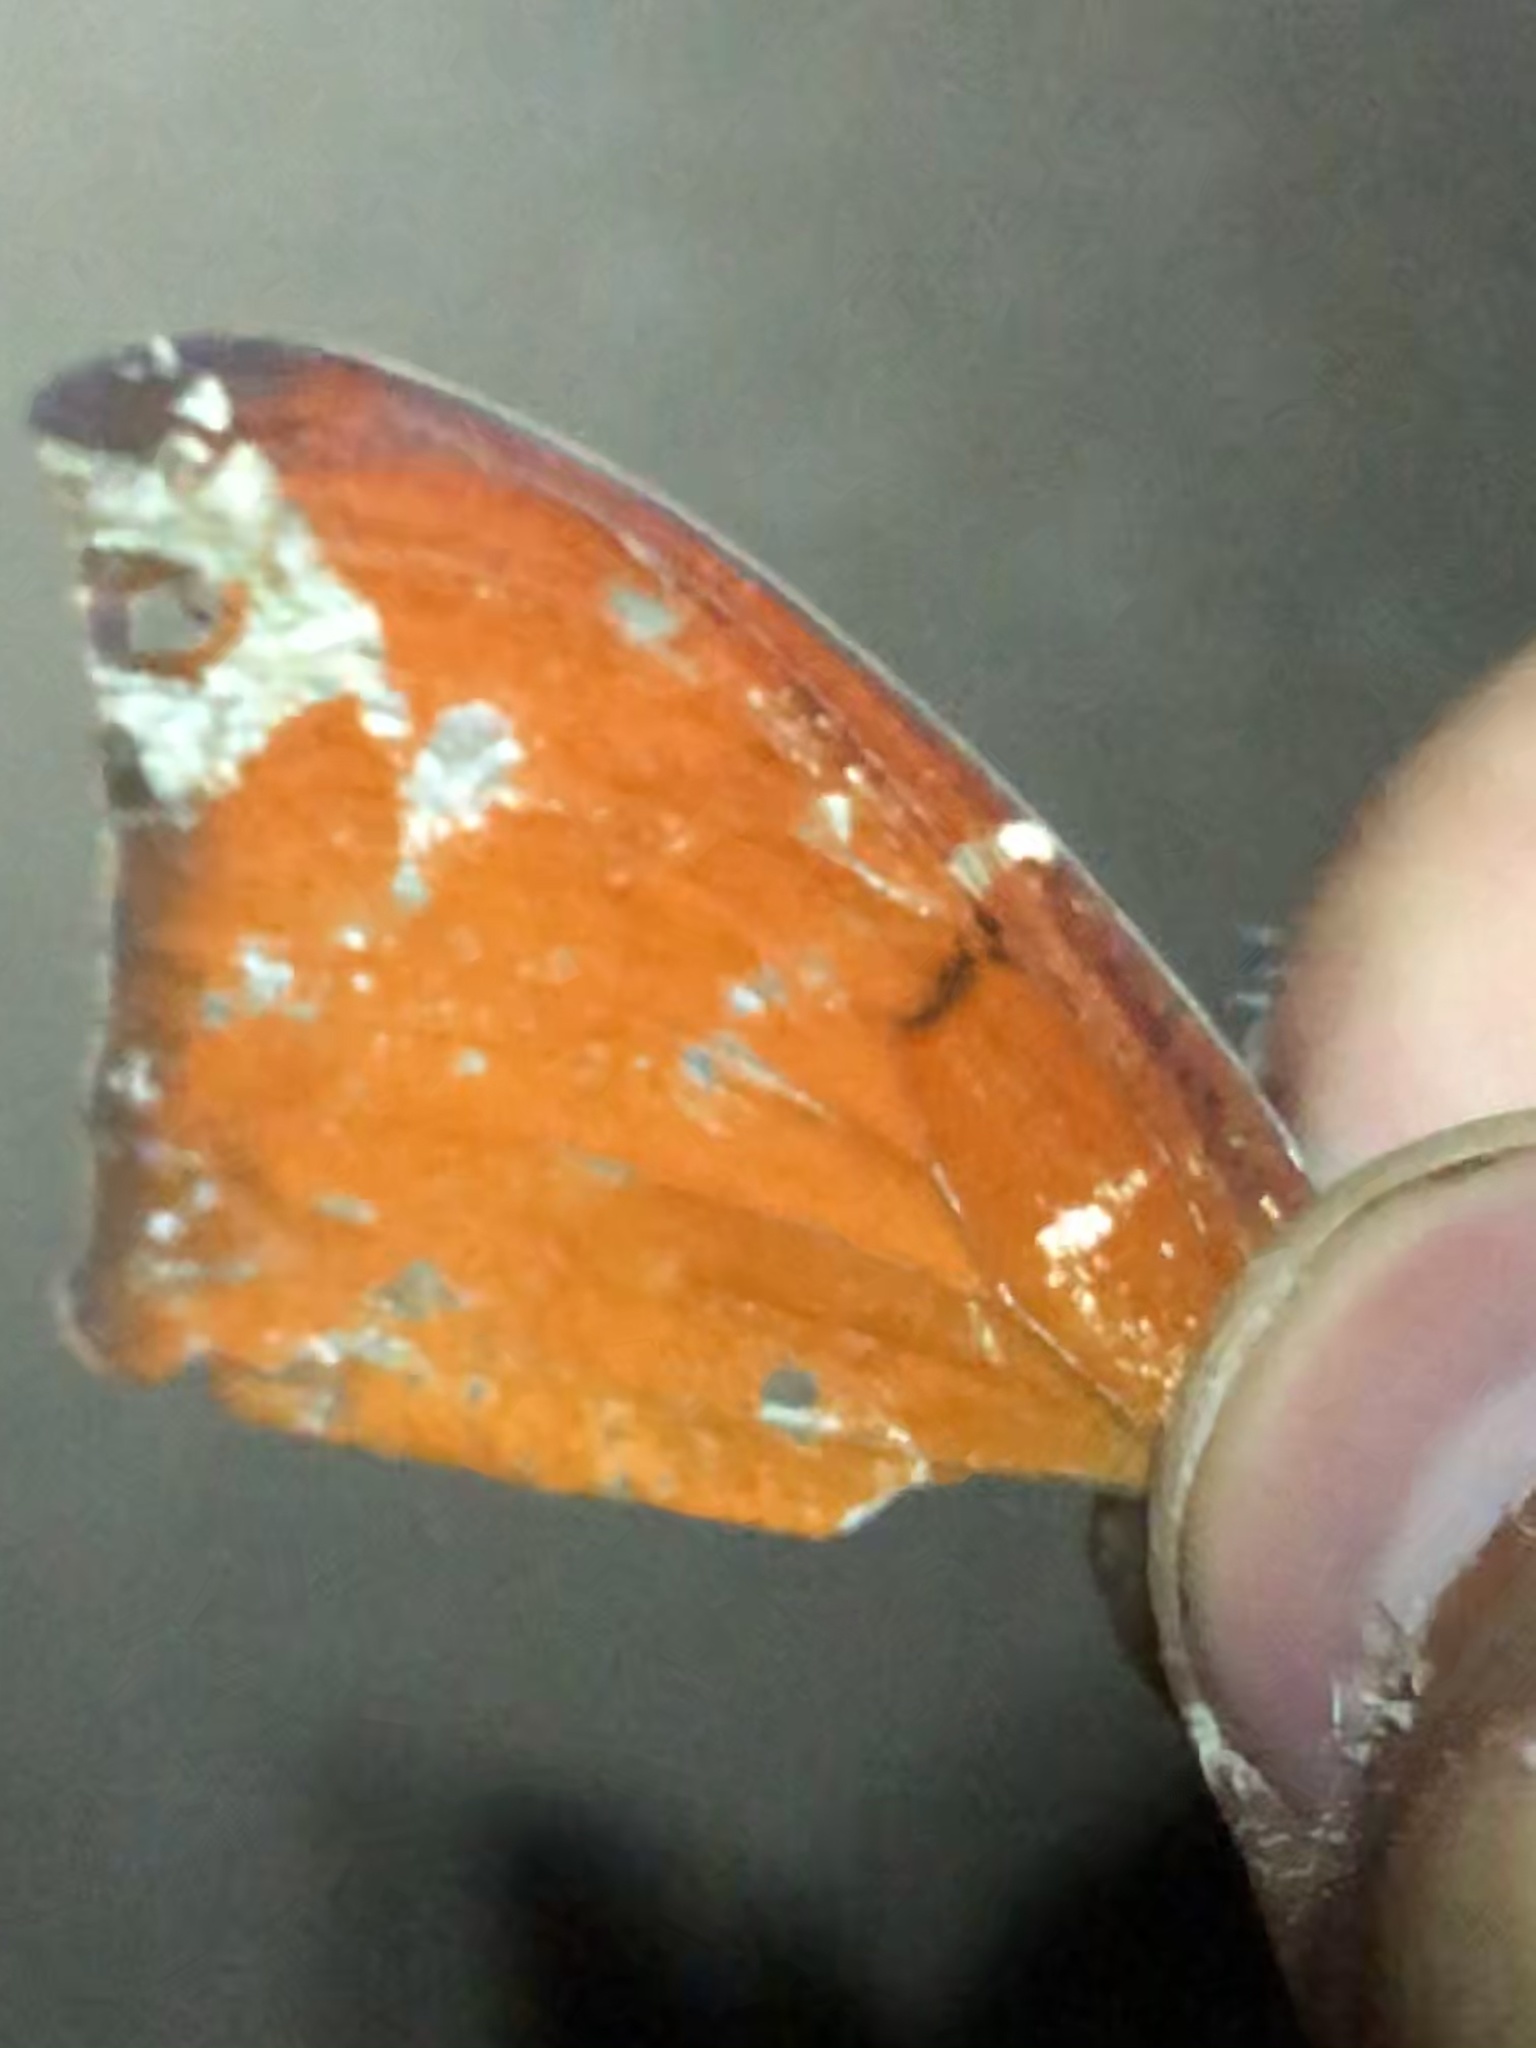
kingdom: Animalia
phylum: Arthropoda
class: Insecta
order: Lepidoptera
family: Nymphalidae
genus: Anaea
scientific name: Anaea andria
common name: Goatweed leafwing
